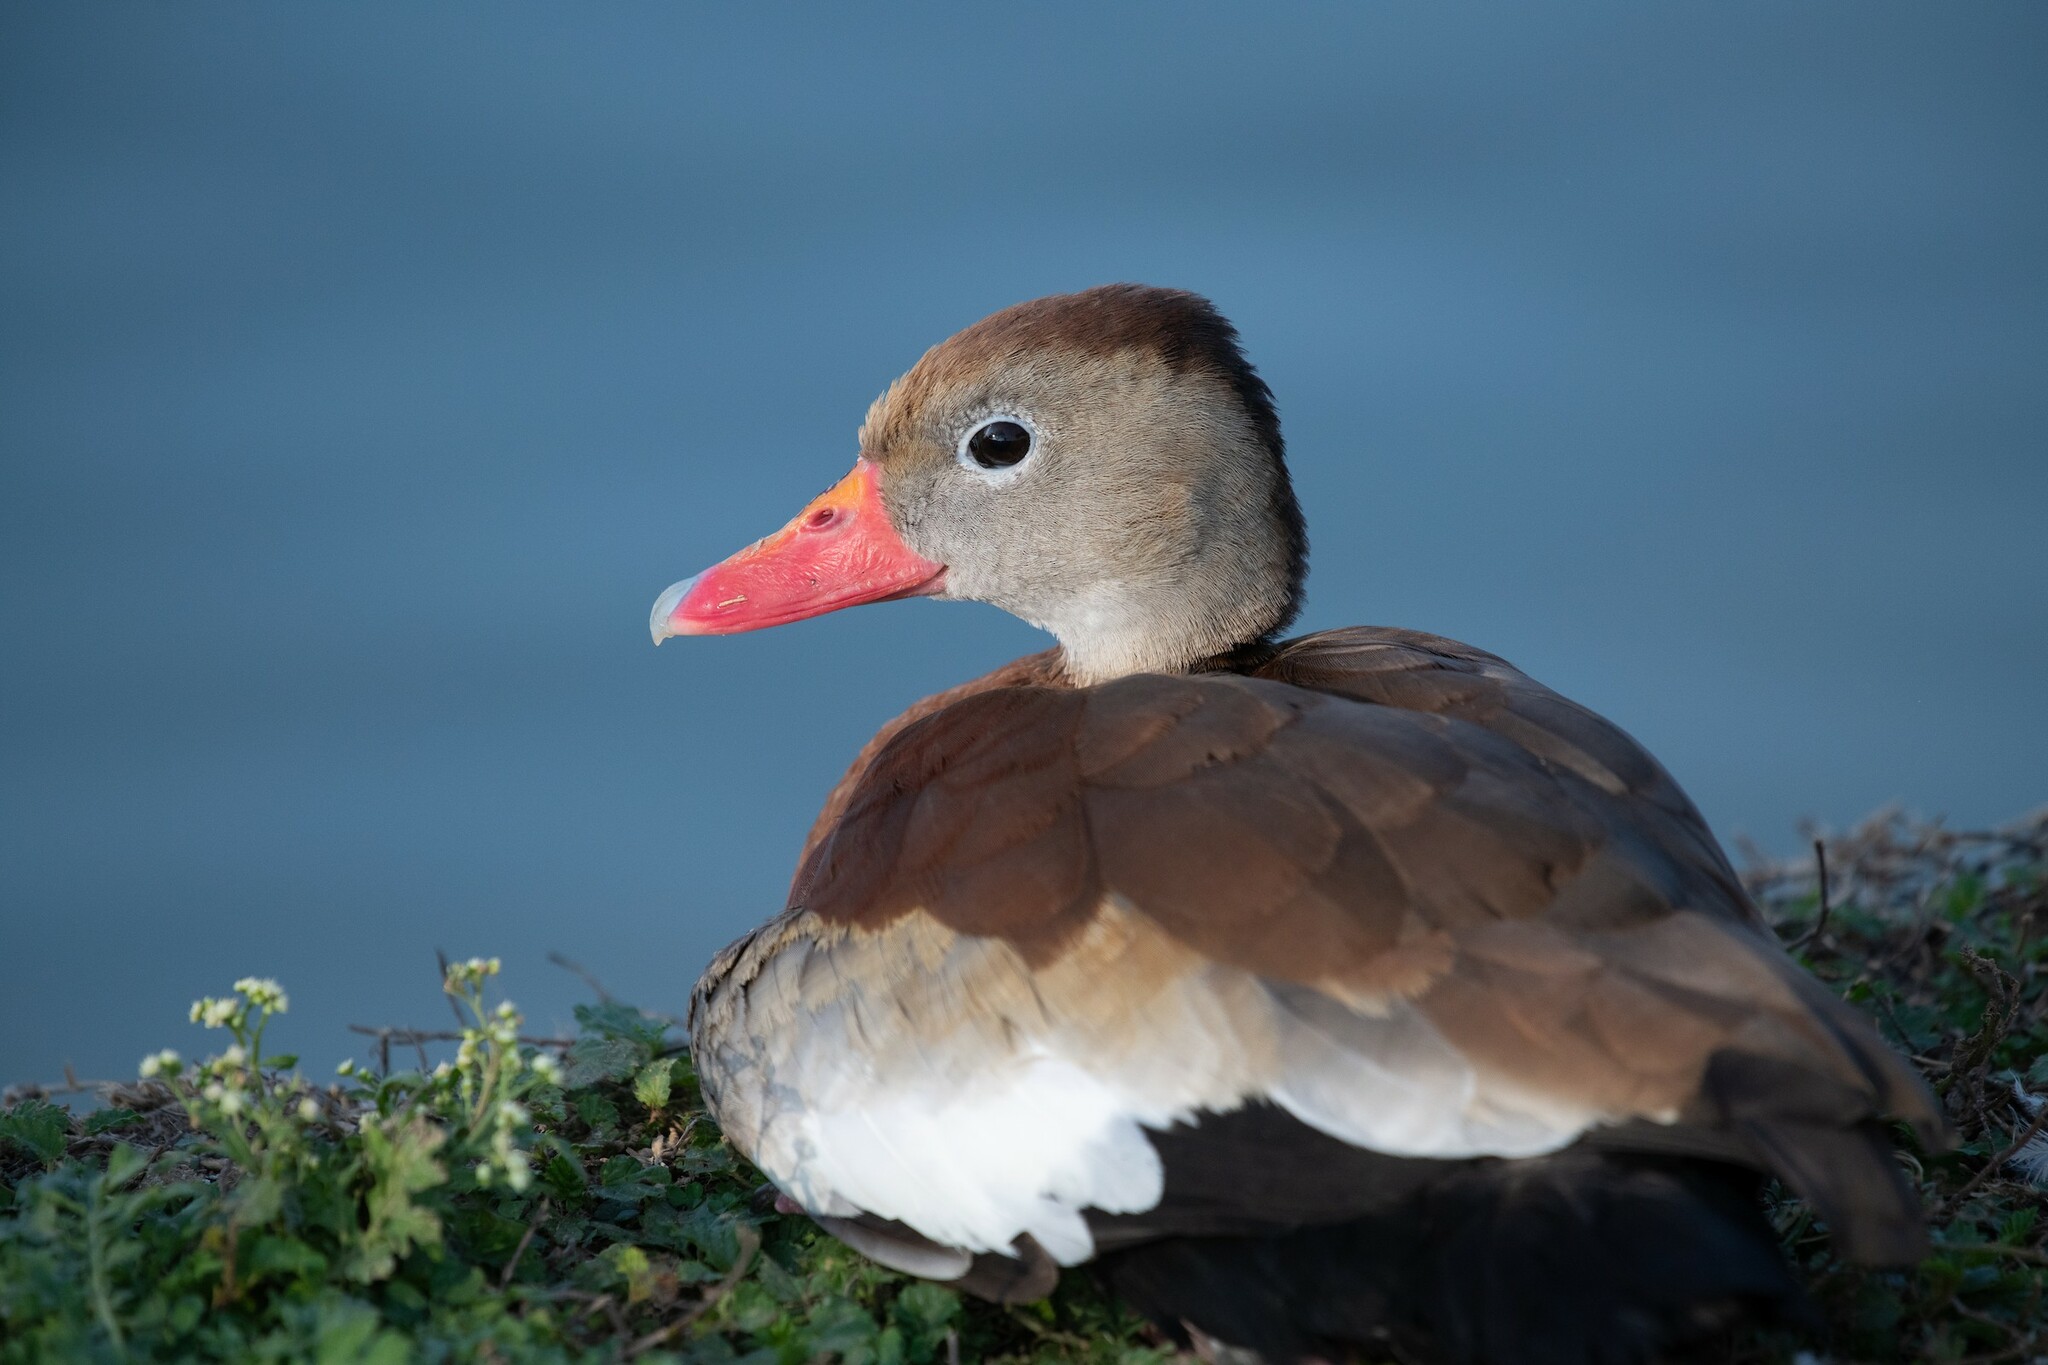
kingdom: Animalia
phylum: Chordata
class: Aves
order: Anseriformes
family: Anatidae
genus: Dendrocygna
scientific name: Dendrocygna autumnalis
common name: Black-bellied whistling duck
